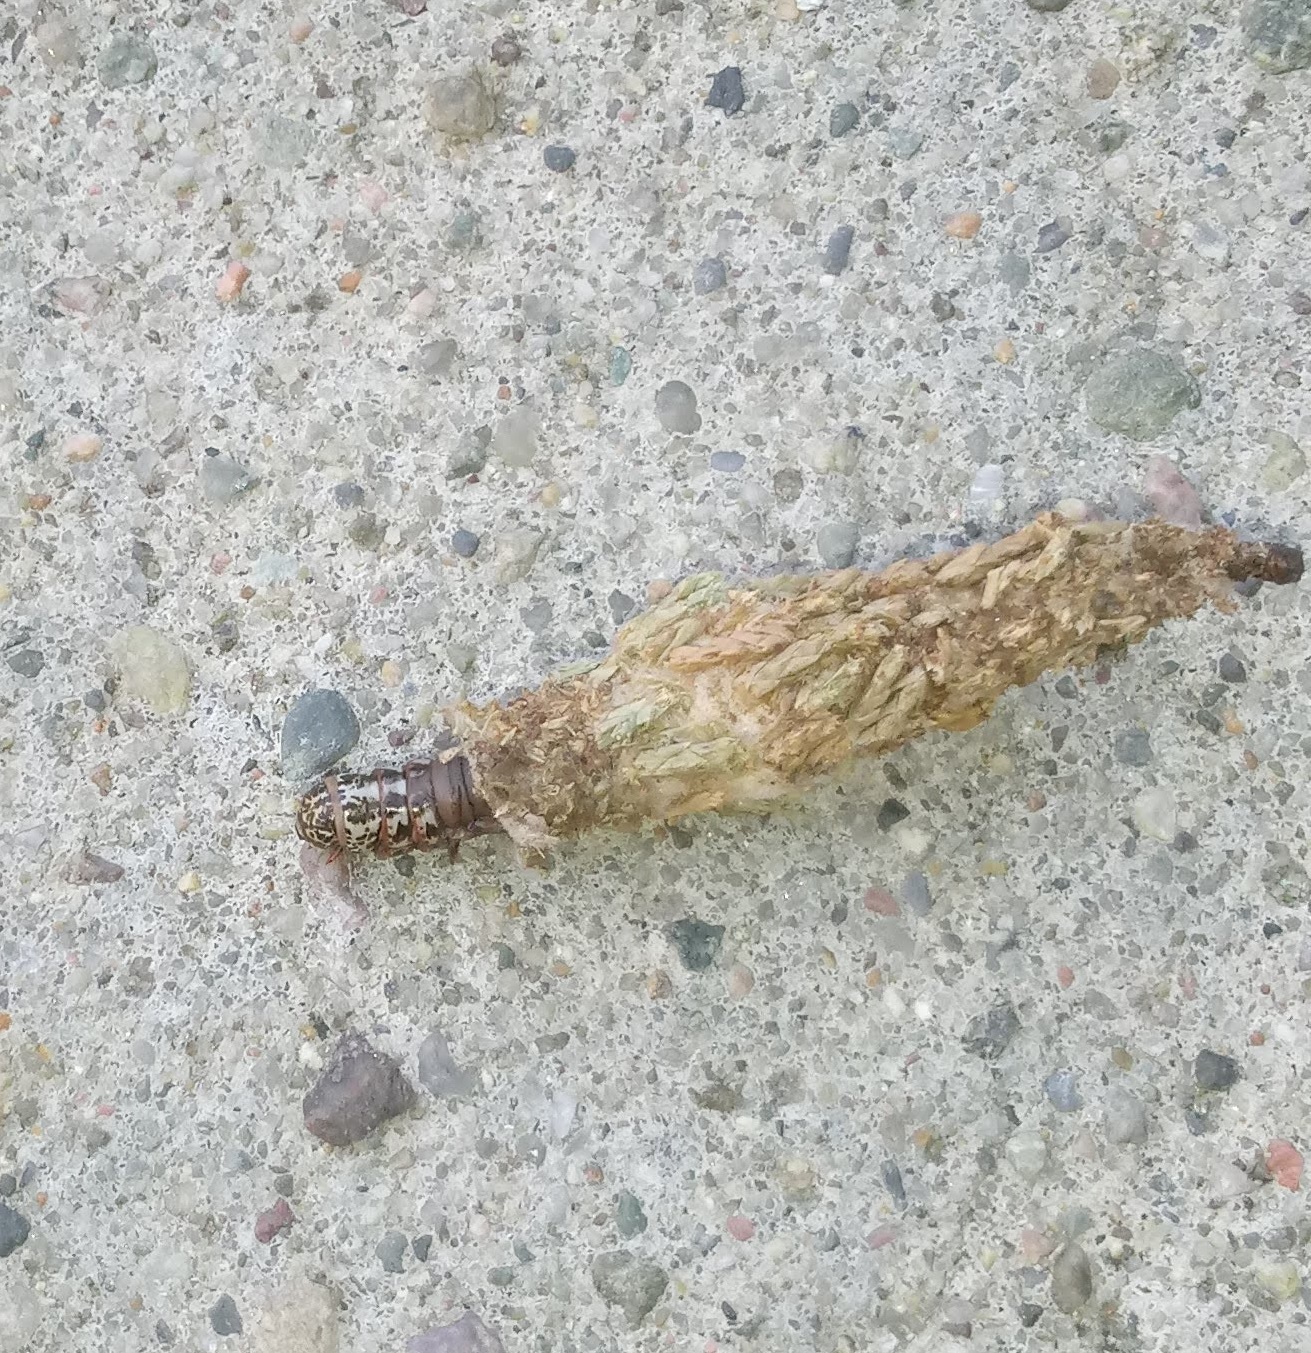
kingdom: Animalia
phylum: Arthropoda
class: Insecta
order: Lepidoptera
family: Psychidae
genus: Thyridopteryx
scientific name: Thyridopteryx ephemeraeformis
